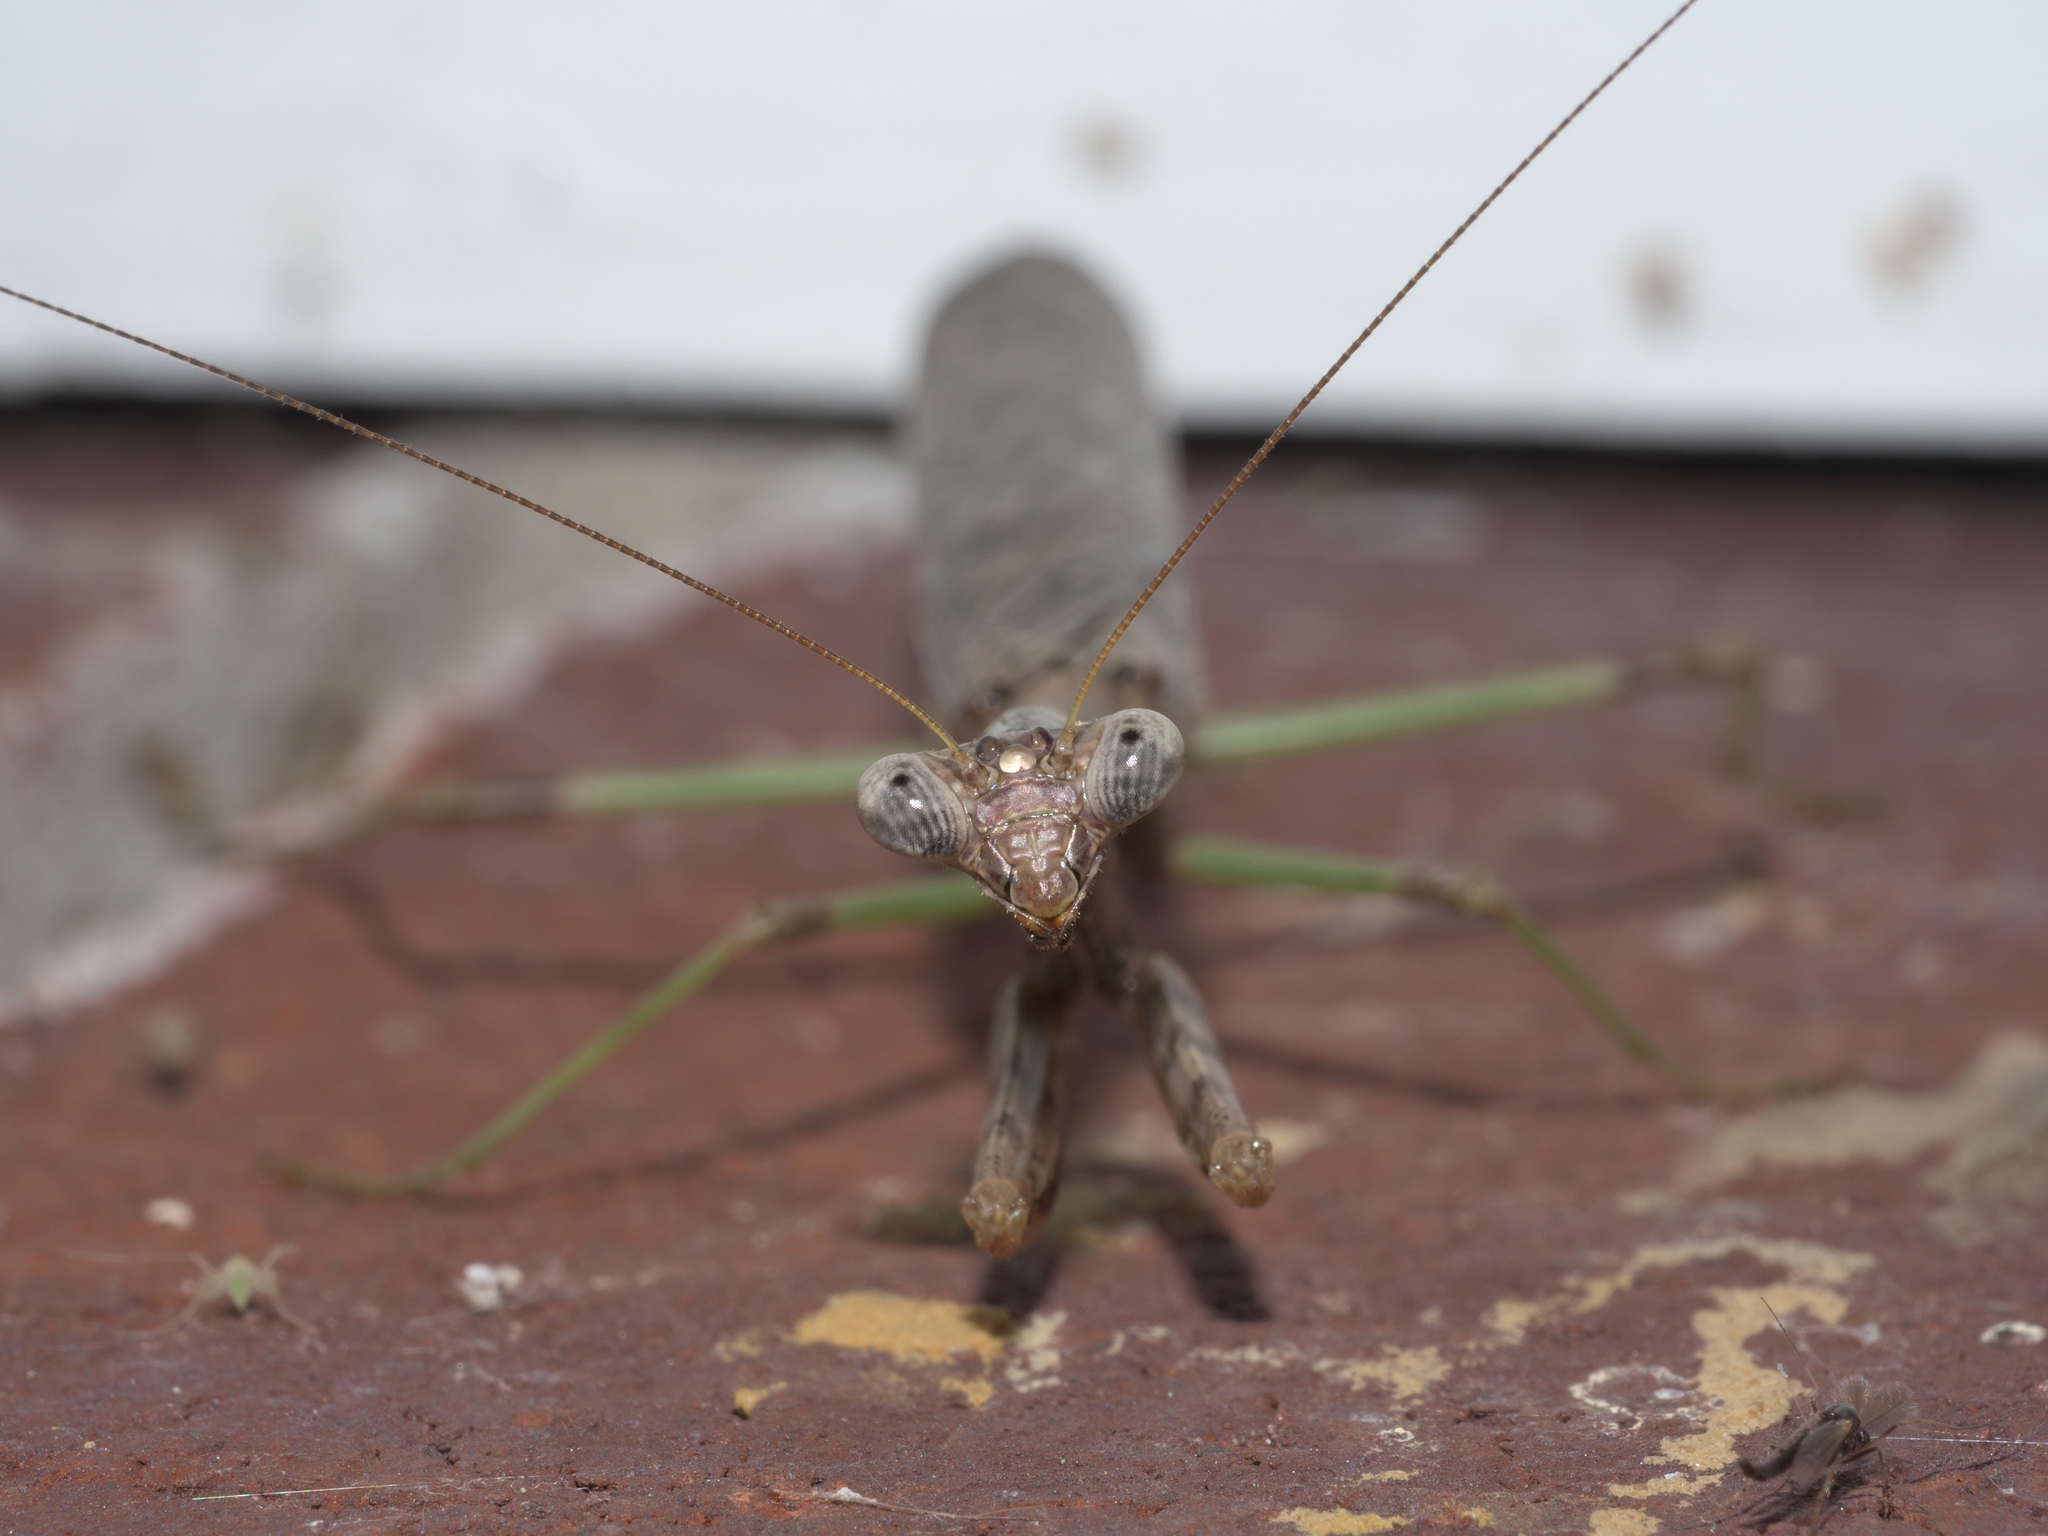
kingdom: Animalia
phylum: Arthropoda
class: Insecta
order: Mantodea
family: Mantidae
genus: Stagmomantis
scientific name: Stagmomantis carolina
